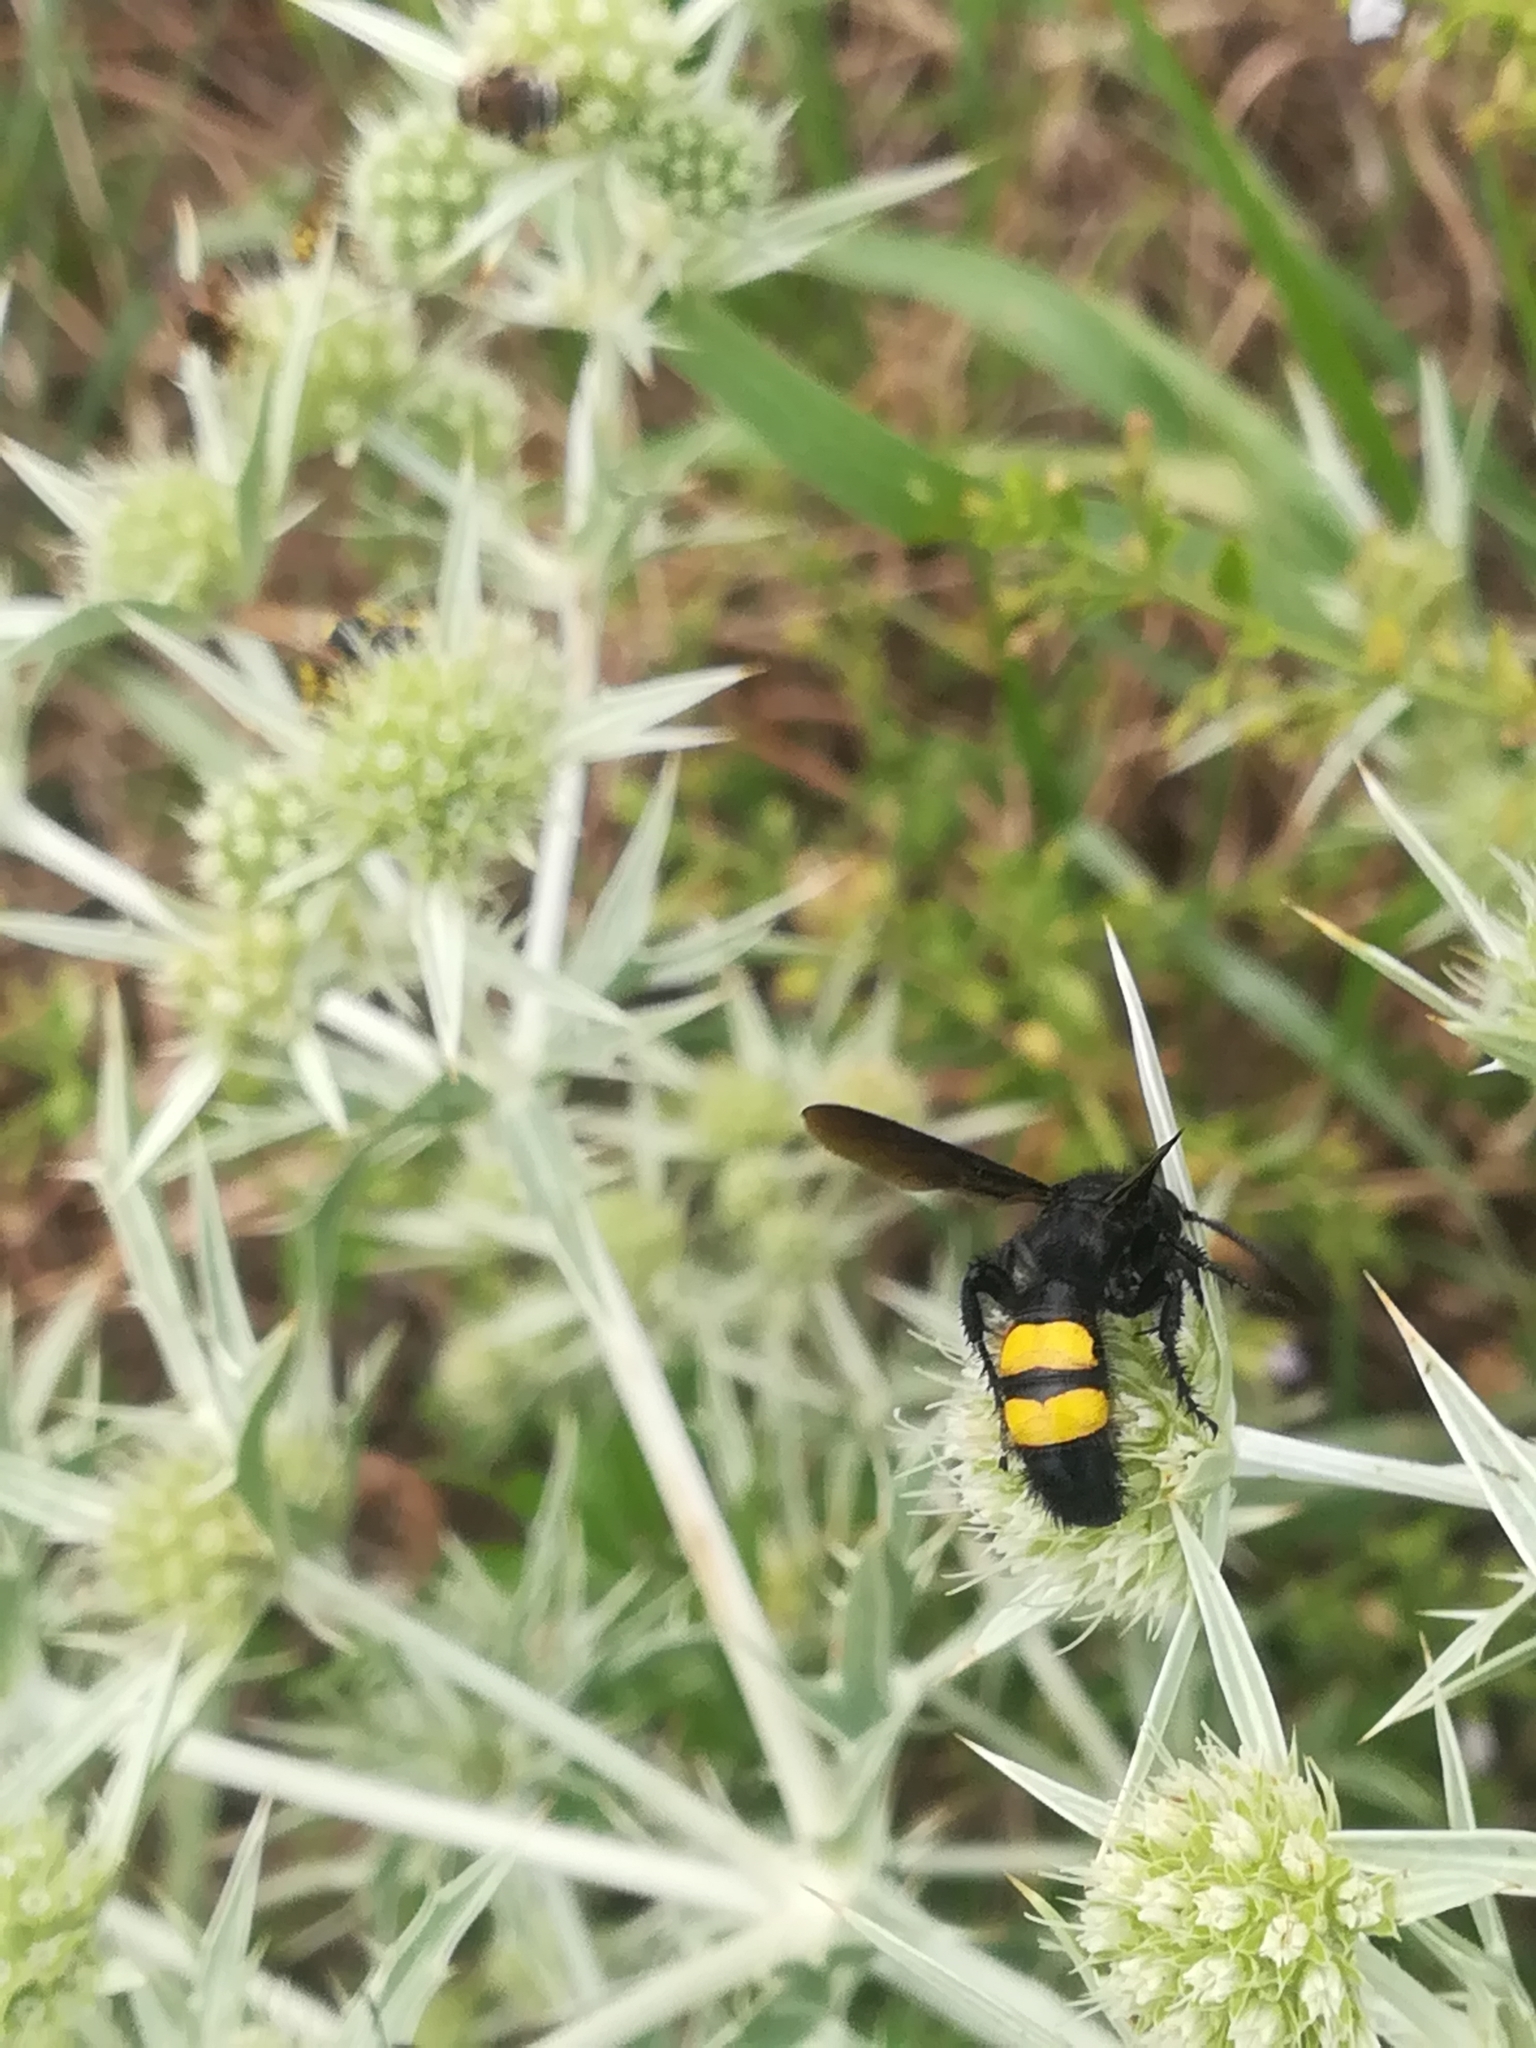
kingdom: Animalia
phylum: Arthropoda
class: Insecta
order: Hymenoptera
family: Scoliidae
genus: Scolia
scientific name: Scolia hirta
